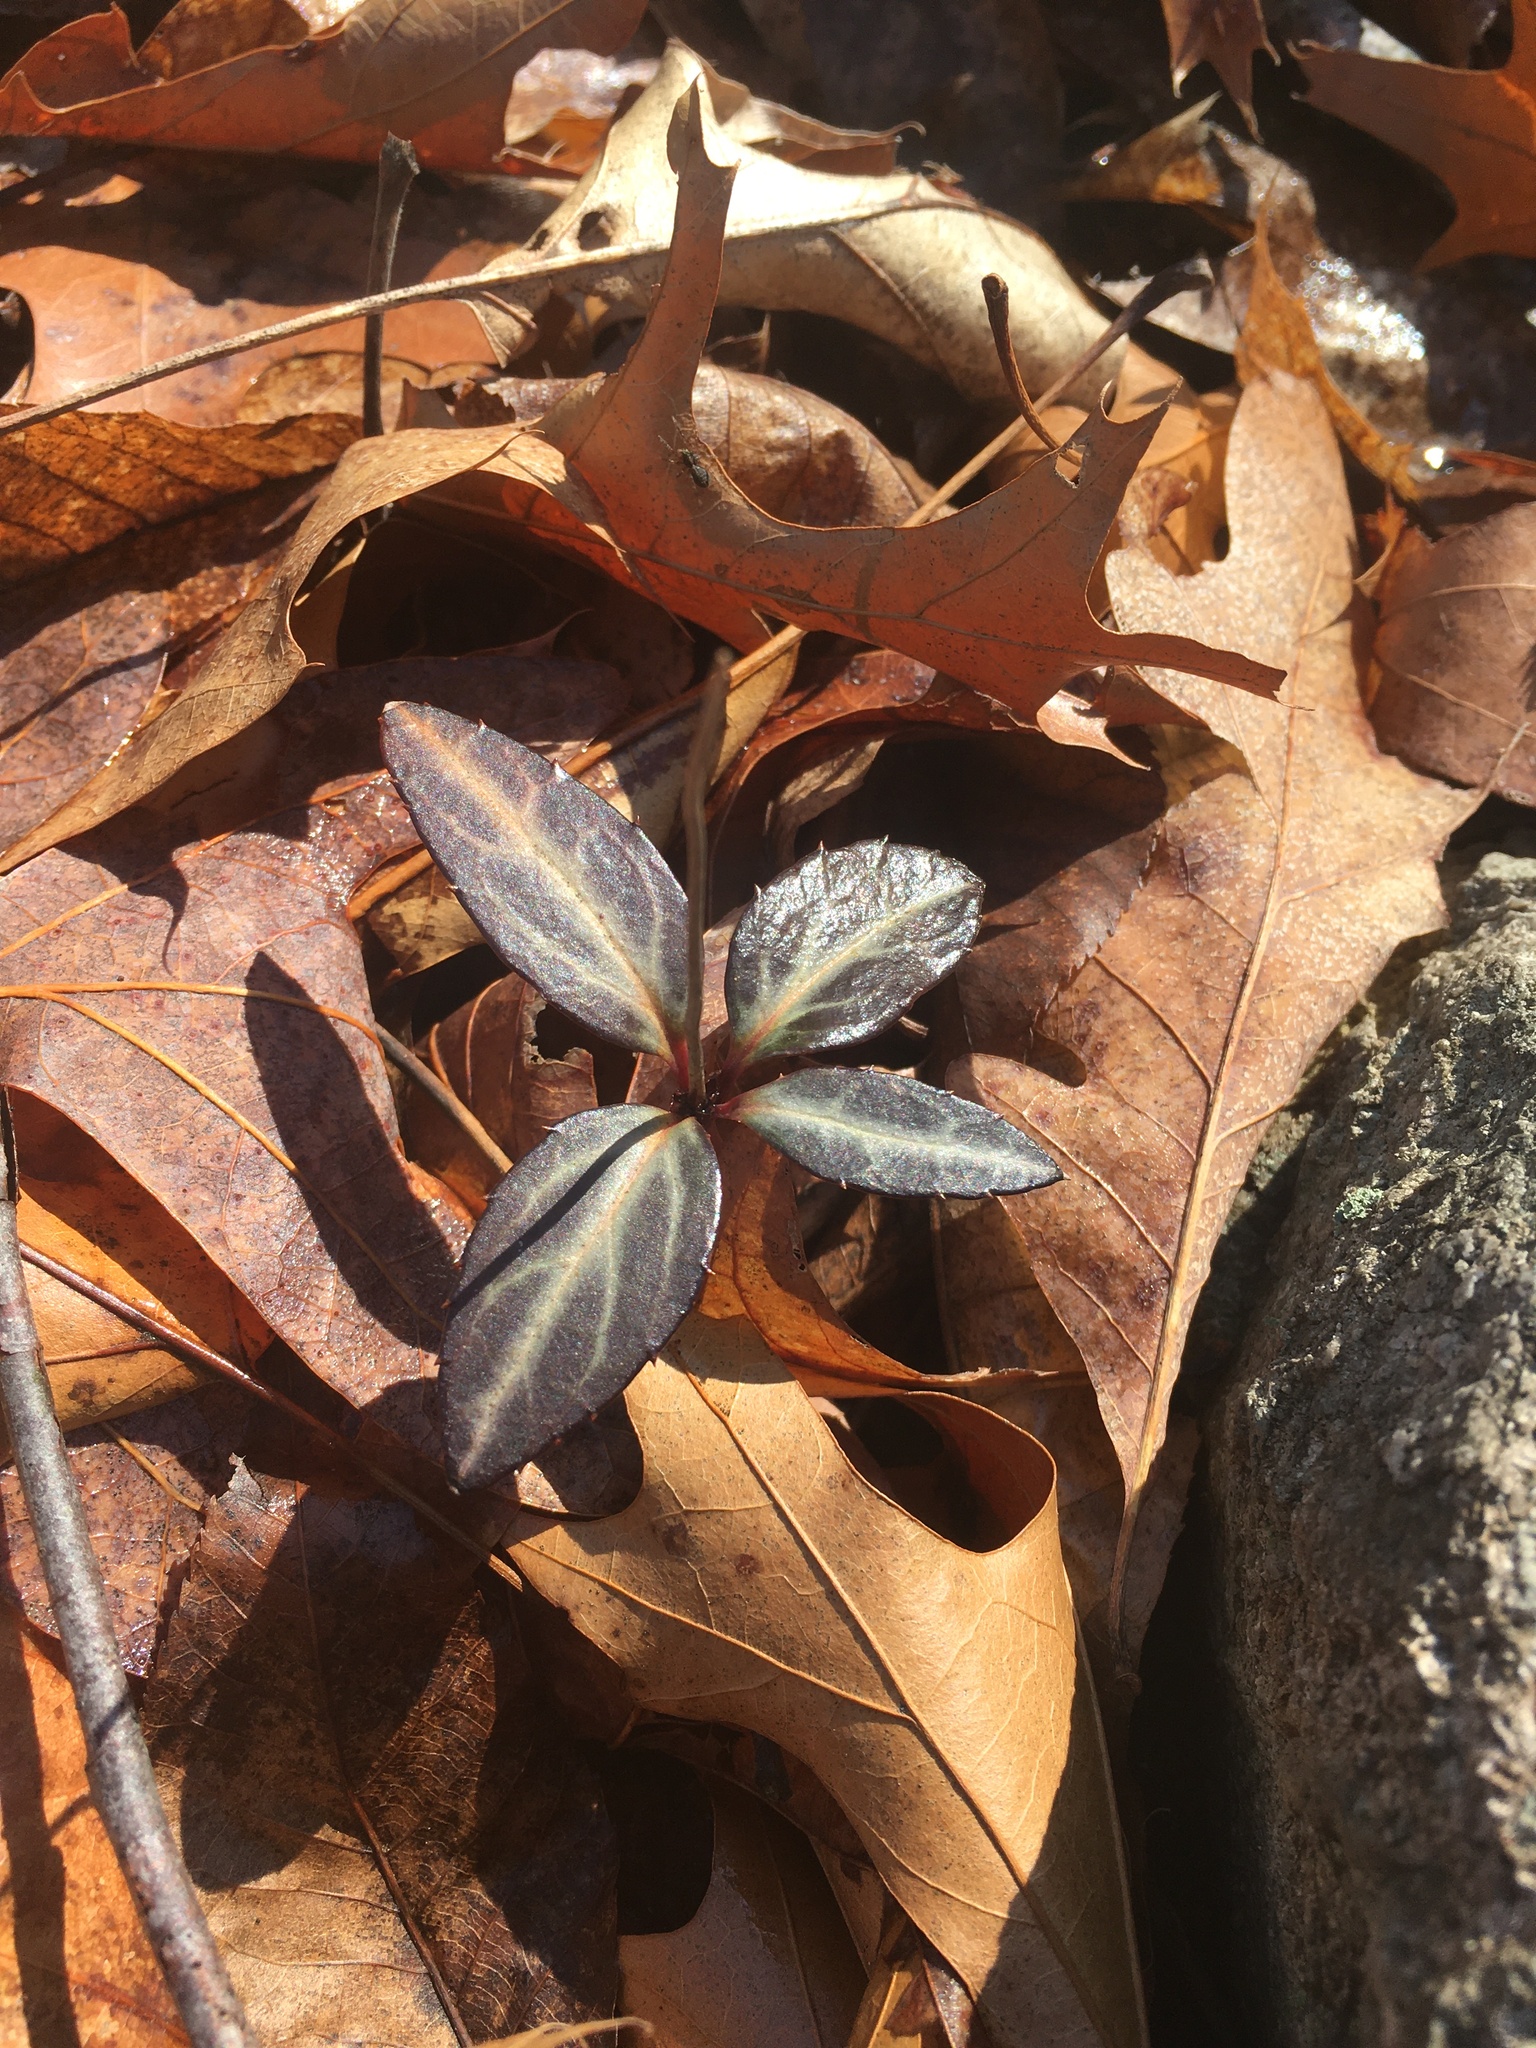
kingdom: Plantae
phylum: Tracheophyta
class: Magnoliopsida
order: Ericales
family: Ericaceae
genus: Chimaphila
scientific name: Chimaphila maculata
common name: Spotted pipsissewa
